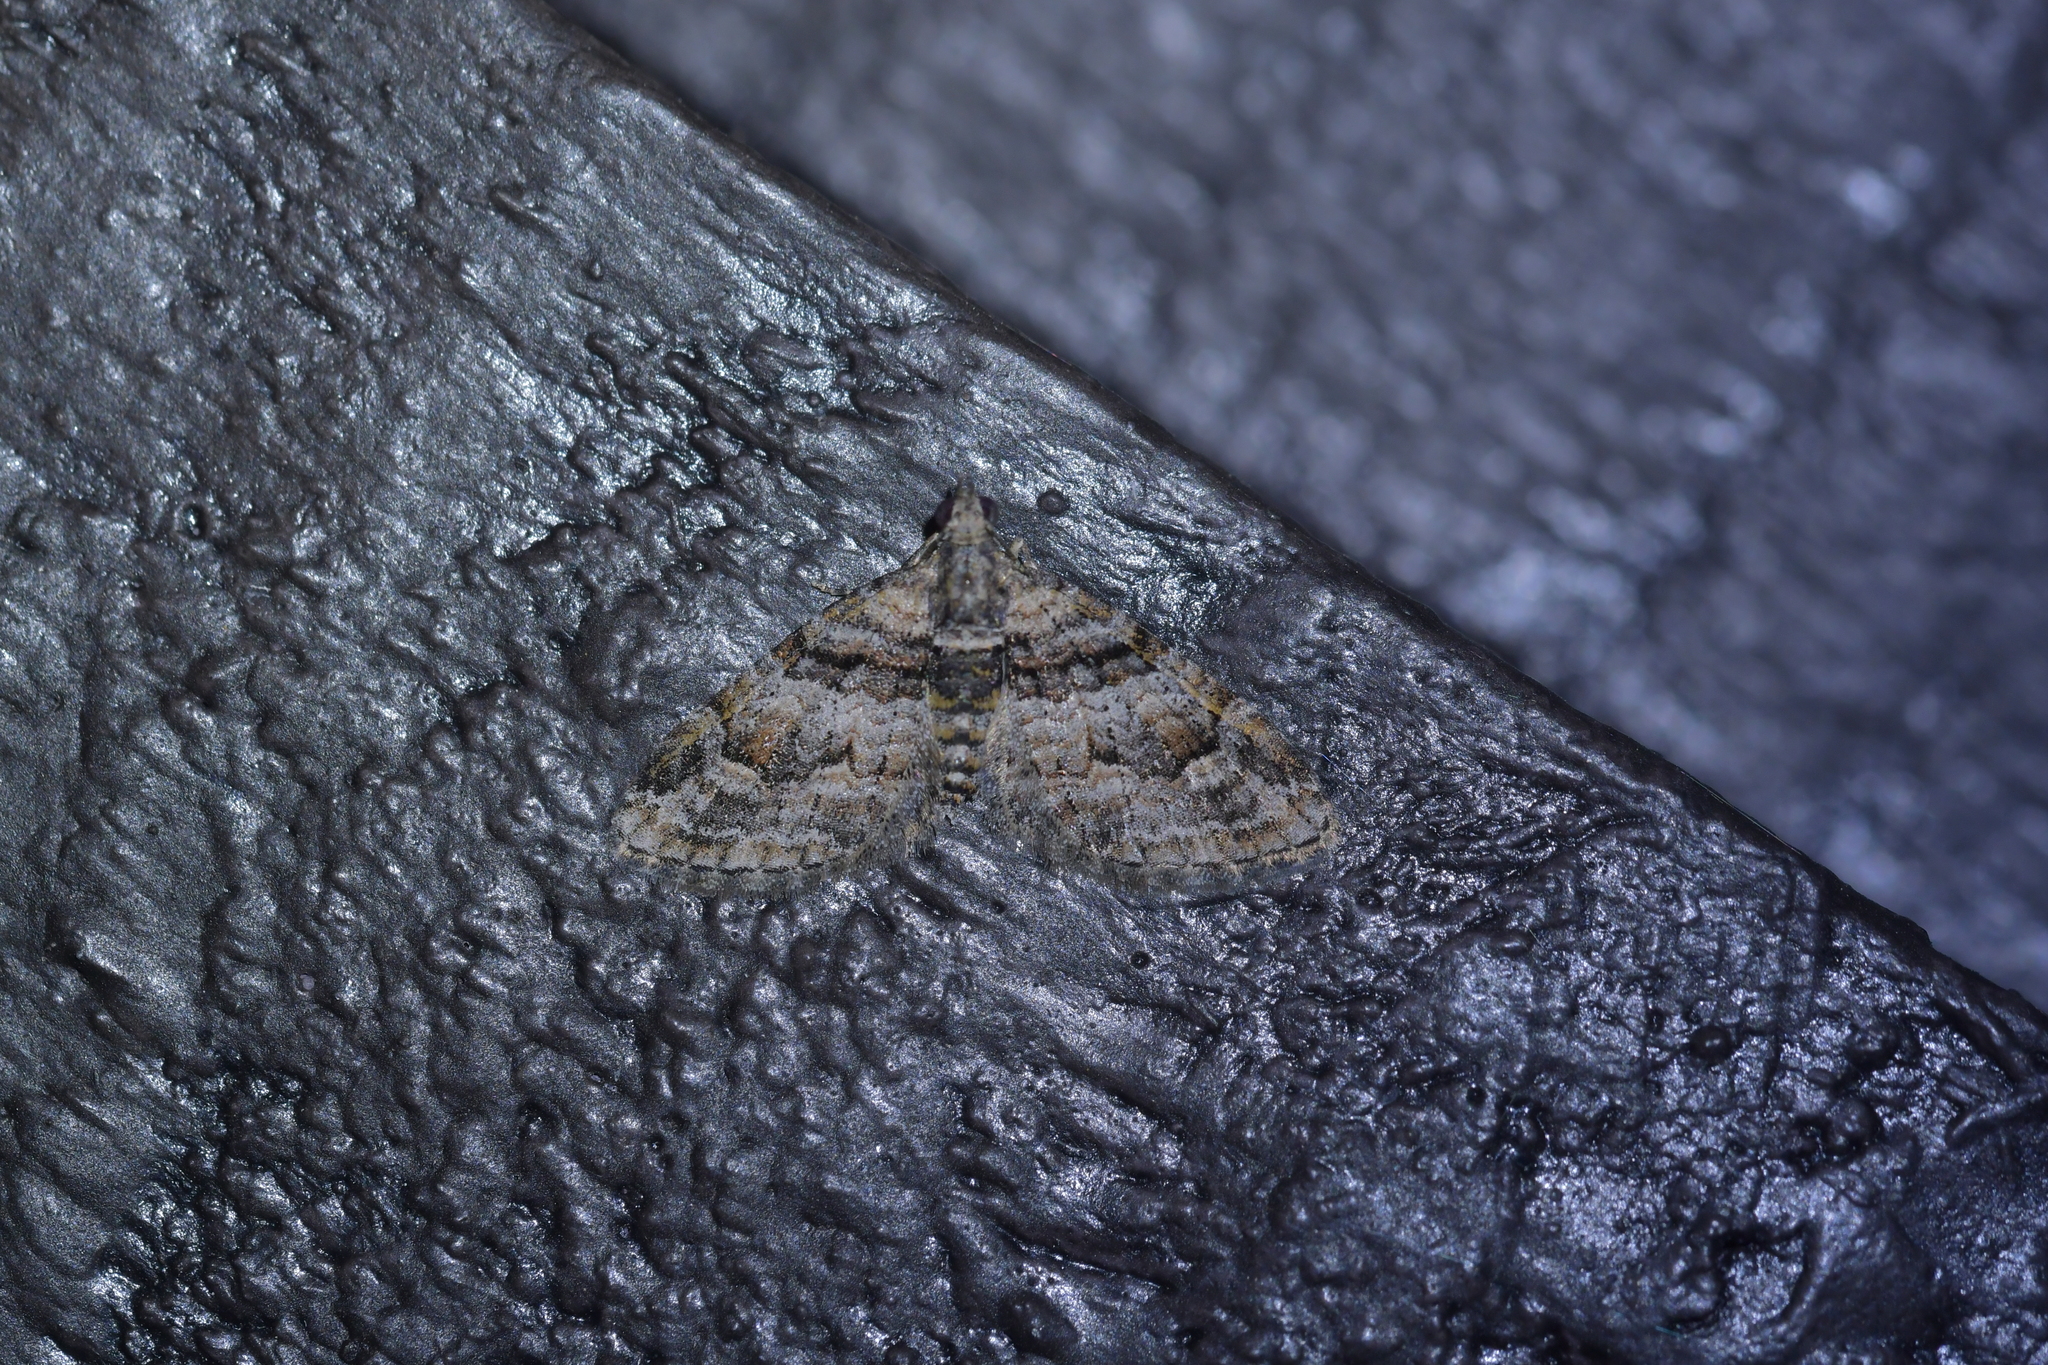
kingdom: Animalia
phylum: Arthropoda
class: Insecta
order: Lepidoptera
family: Geometridae
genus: Phrissogonus
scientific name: Phrissogonus laticostata
